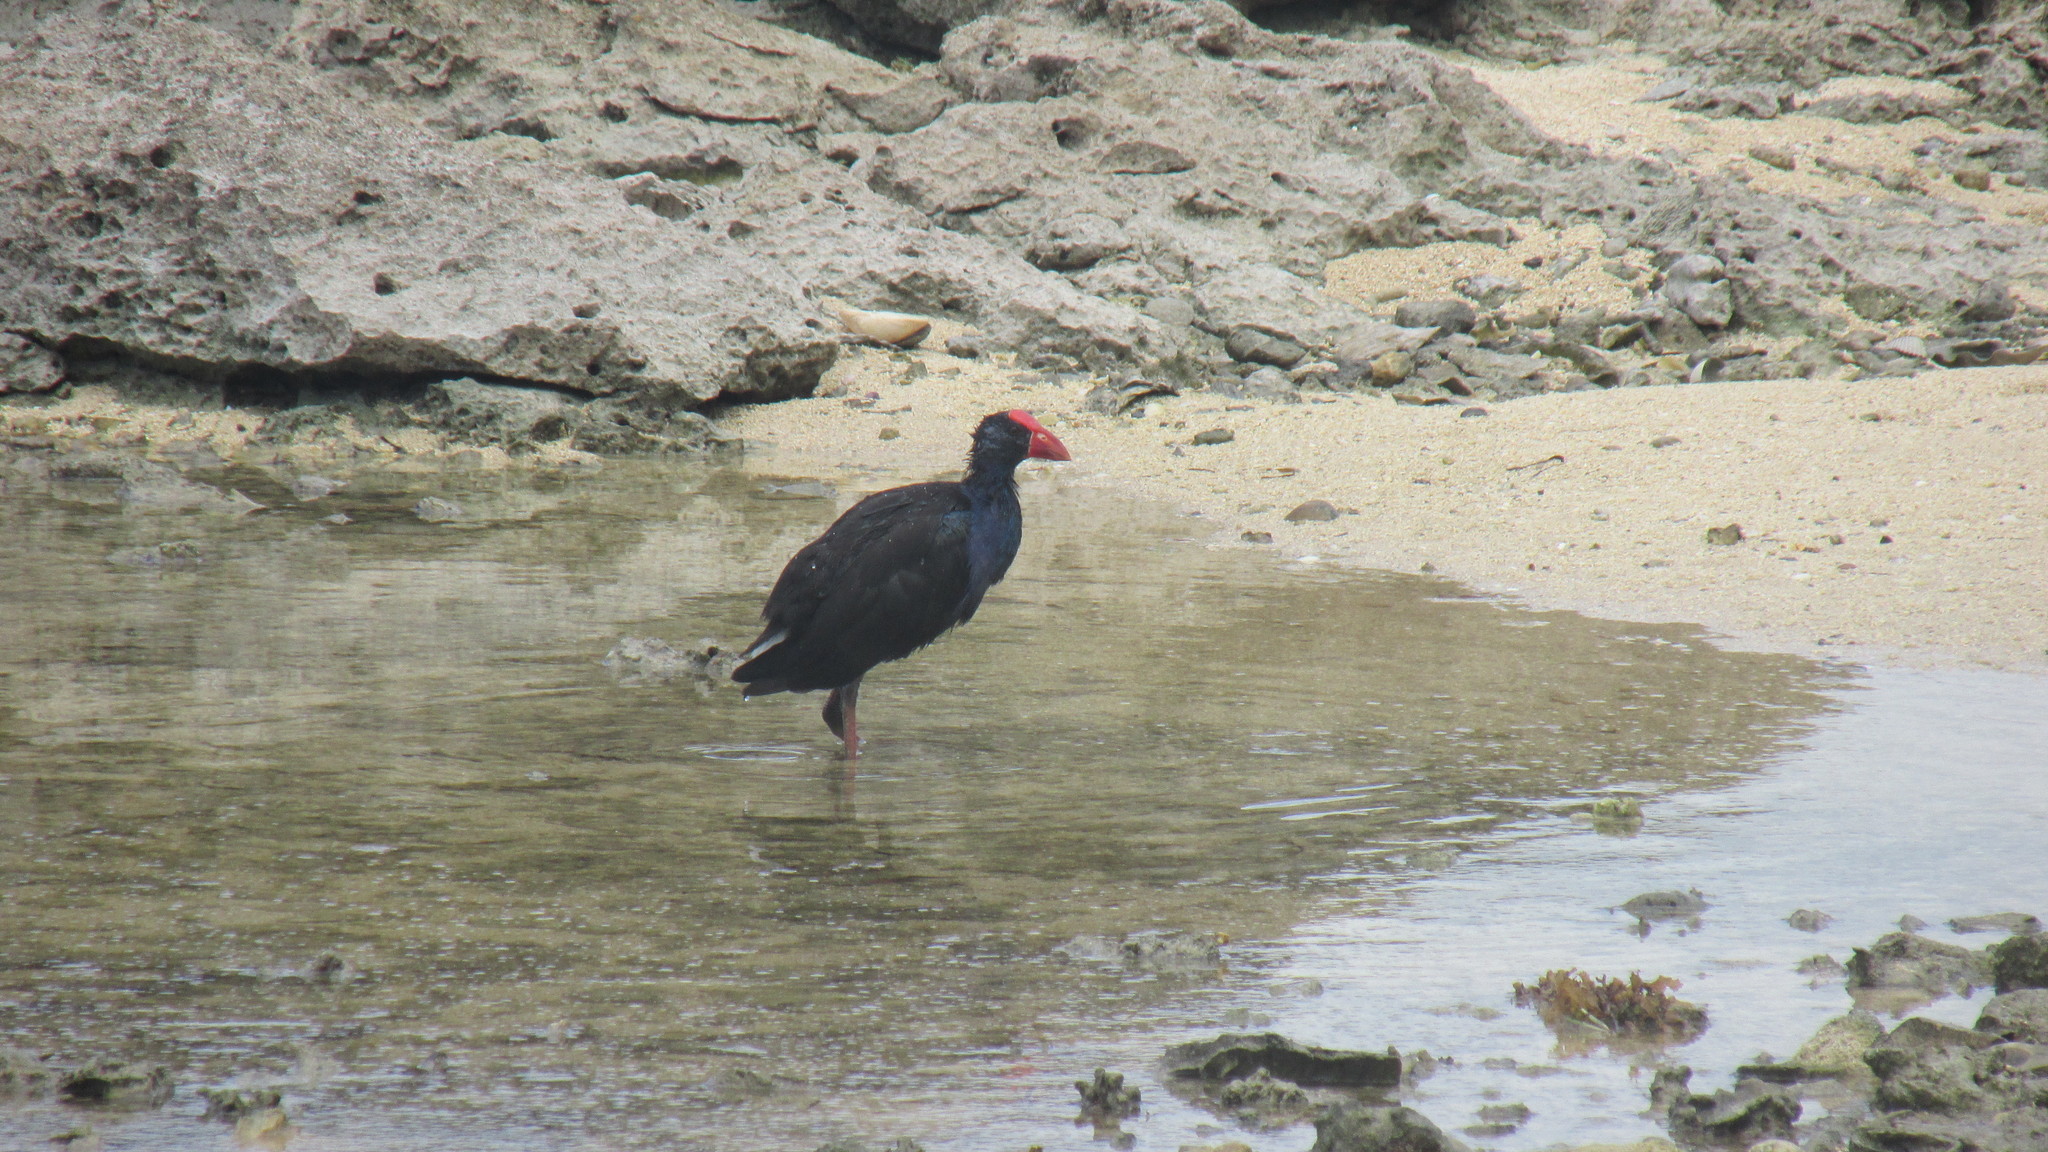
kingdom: Animalia
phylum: Chordata
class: Aves
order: Gruiformes
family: Rallidae
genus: Porphyrio
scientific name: Porphyrio melanotus
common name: Australasian swamphen
